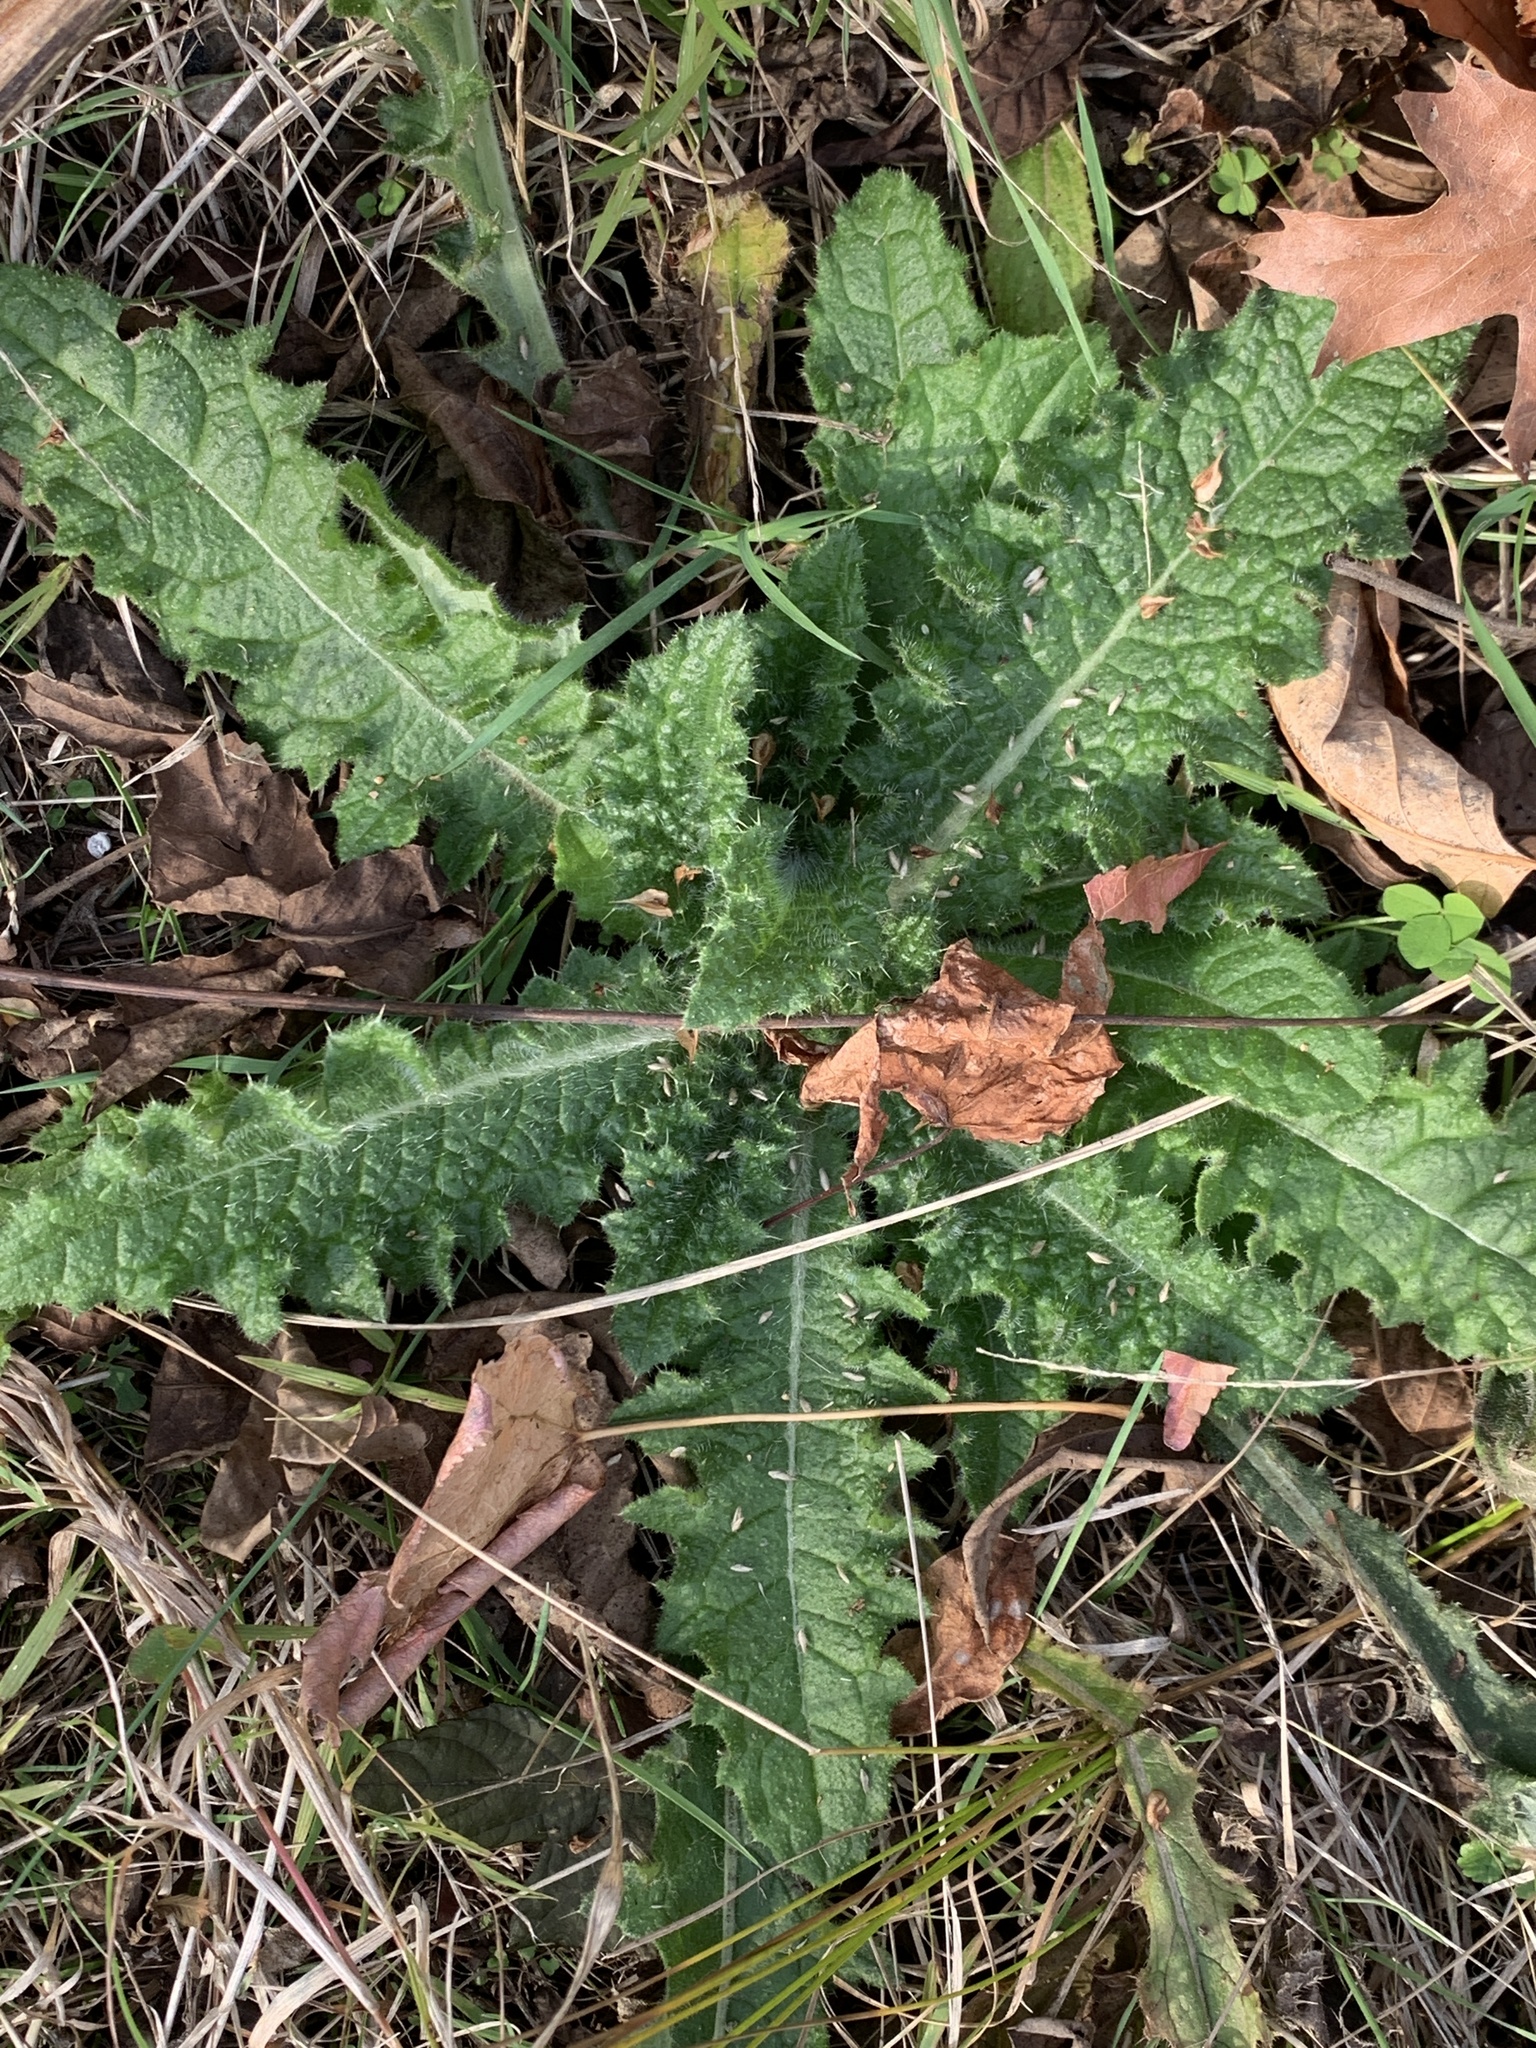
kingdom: Plantae
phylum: Tracheophyta
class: Magnoliopsida
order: Asterales
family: Asteraceae
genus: Cirsium
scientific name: Cirsium vulgare
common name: Bull thistle
